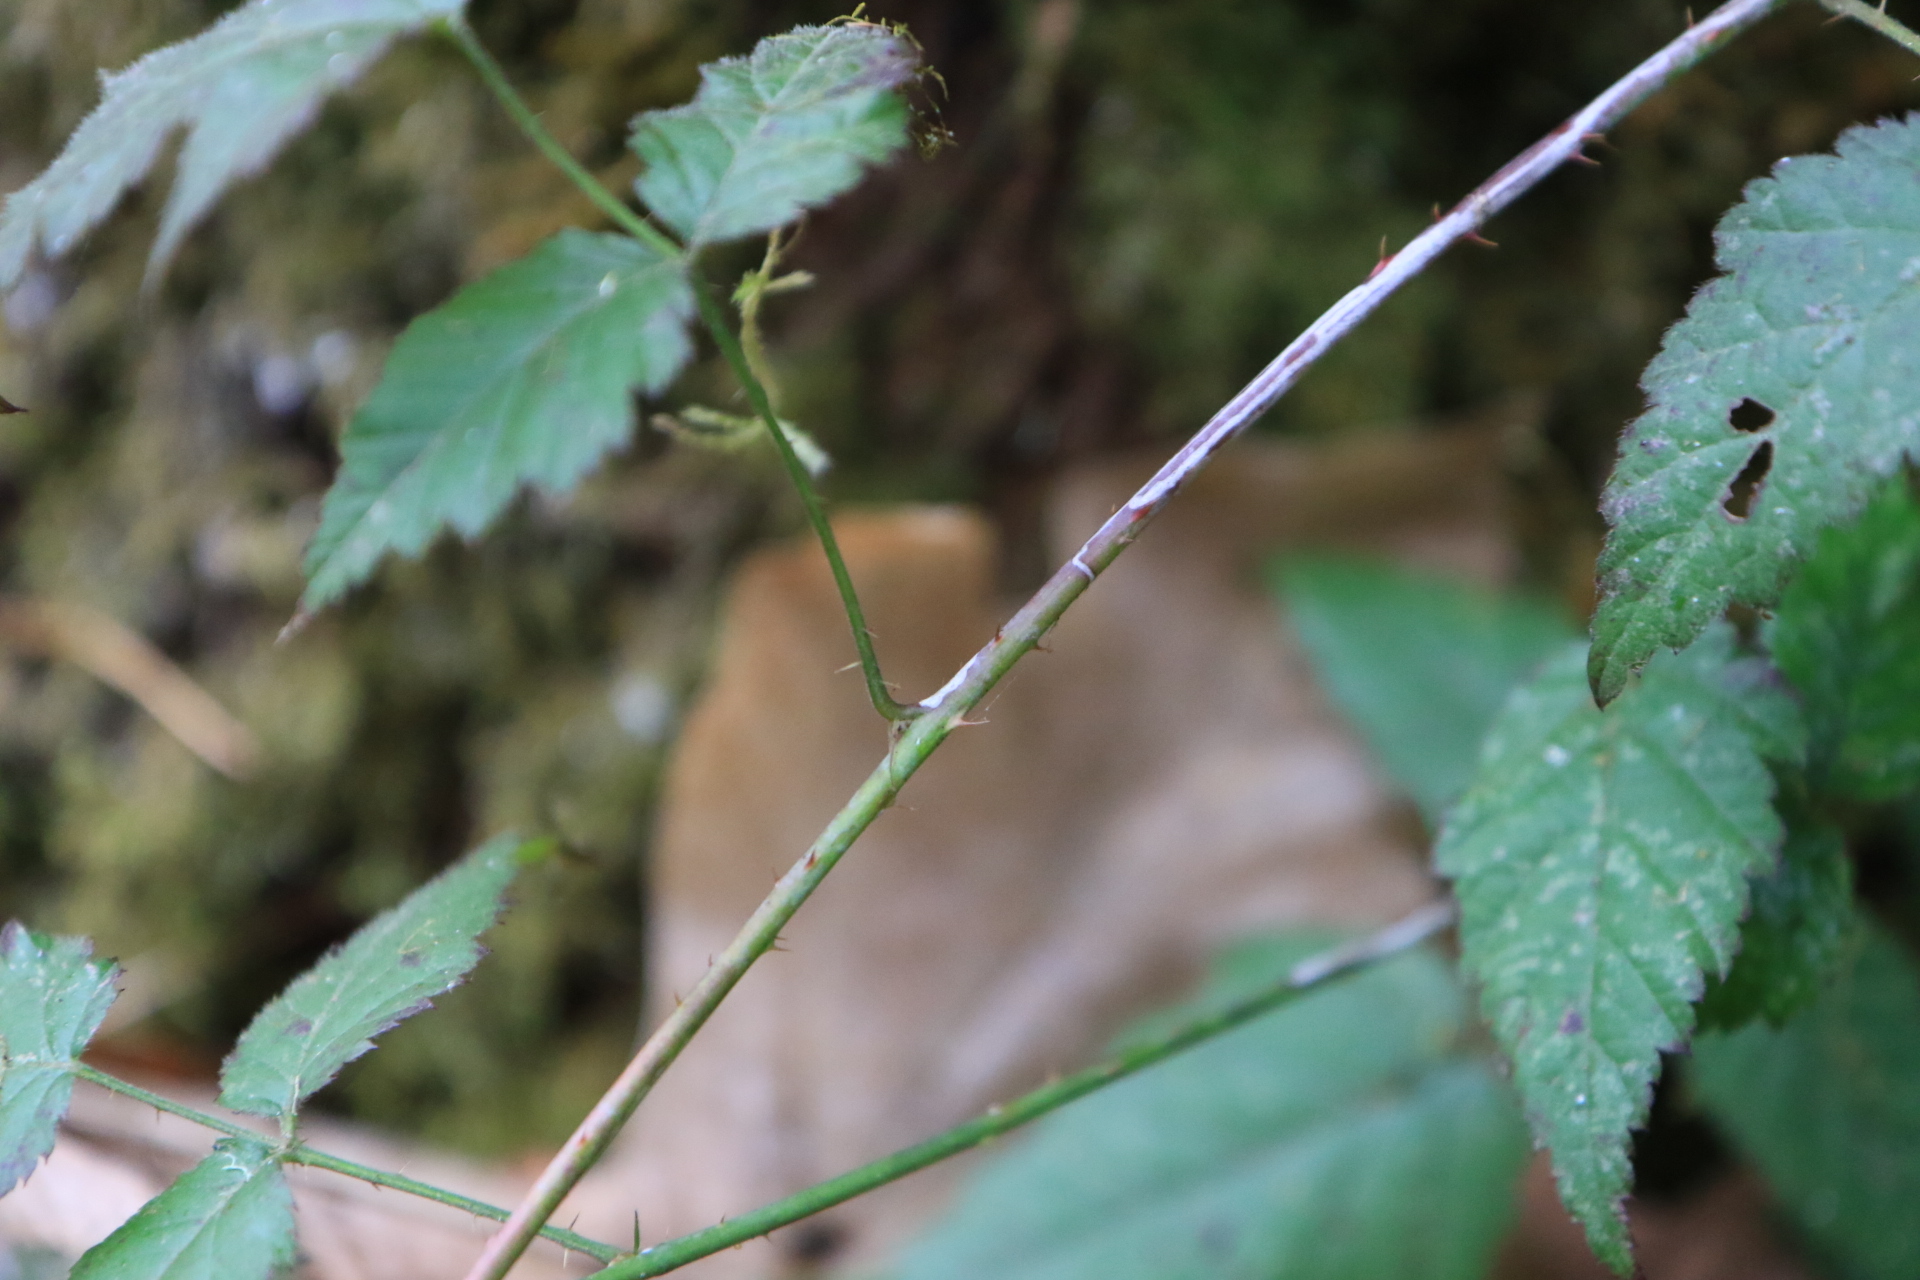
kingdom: Plantae
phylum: Tracheophyta
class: Magnoliopsida
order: Rosales
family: Rosaceae
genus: Rubus
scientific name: Rubus ursinus
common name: Pacific blackberry
